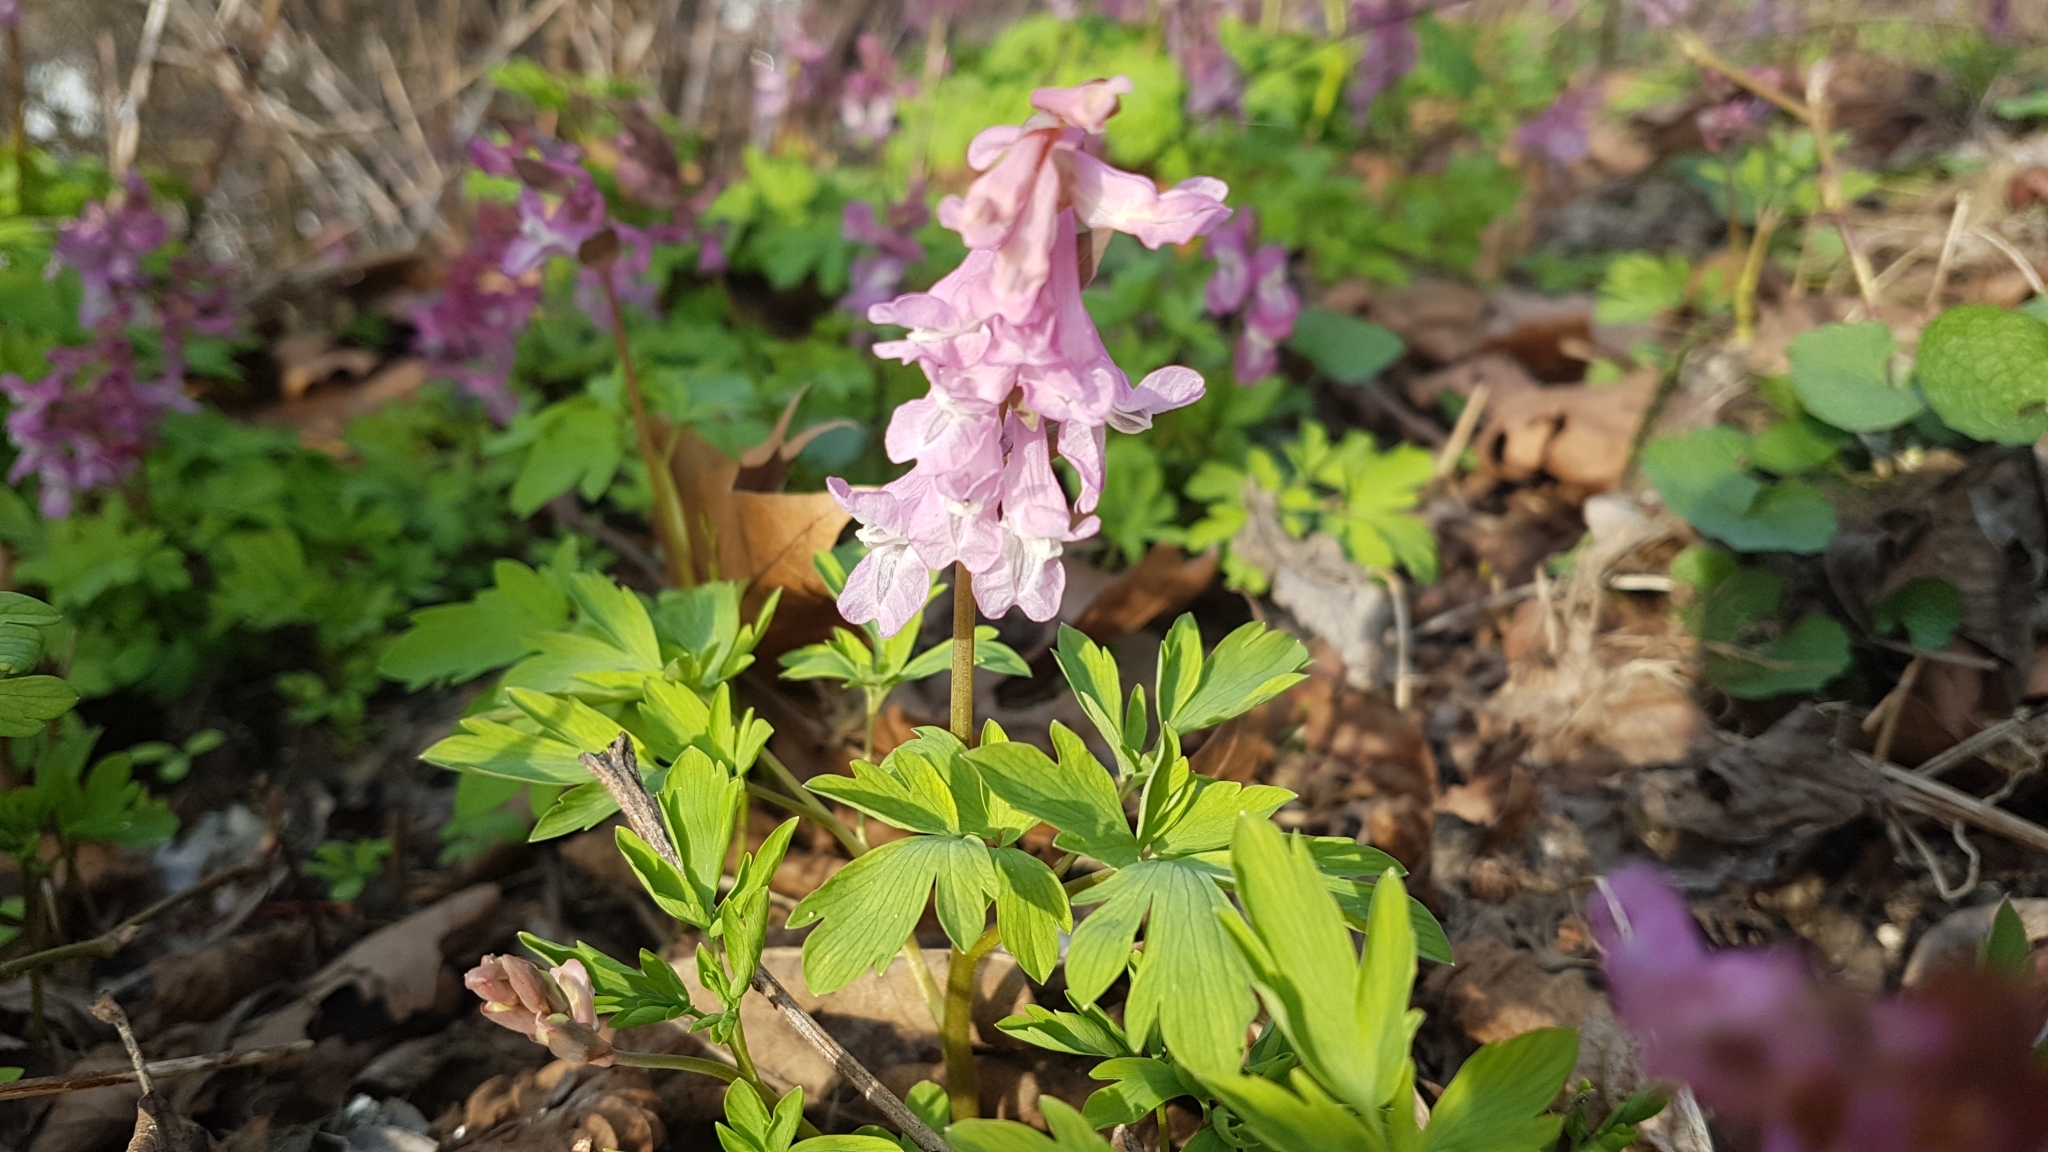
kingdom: Plantae
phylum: Tracheophyta
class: Magnoliopsida
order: Ranunculales
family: Papaveraceae
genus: Corydalis
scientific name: Corydalis cava
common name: Hollowroot
